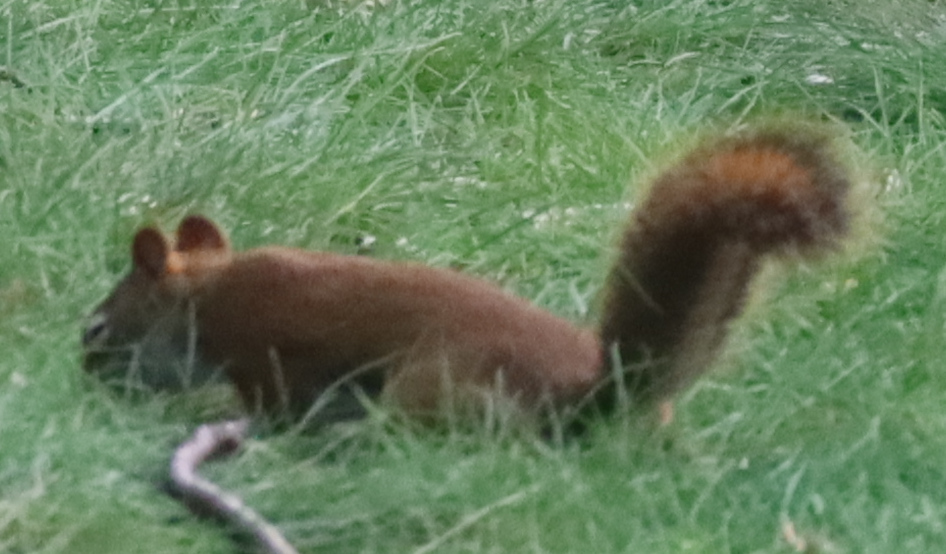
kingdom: Animalia
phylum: Chordata
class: Mammalia
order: Rodentia
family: Sciuridae
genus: Tamiasciurus
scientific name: Tamiasciurus hudsonicus
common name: Red squirrel
